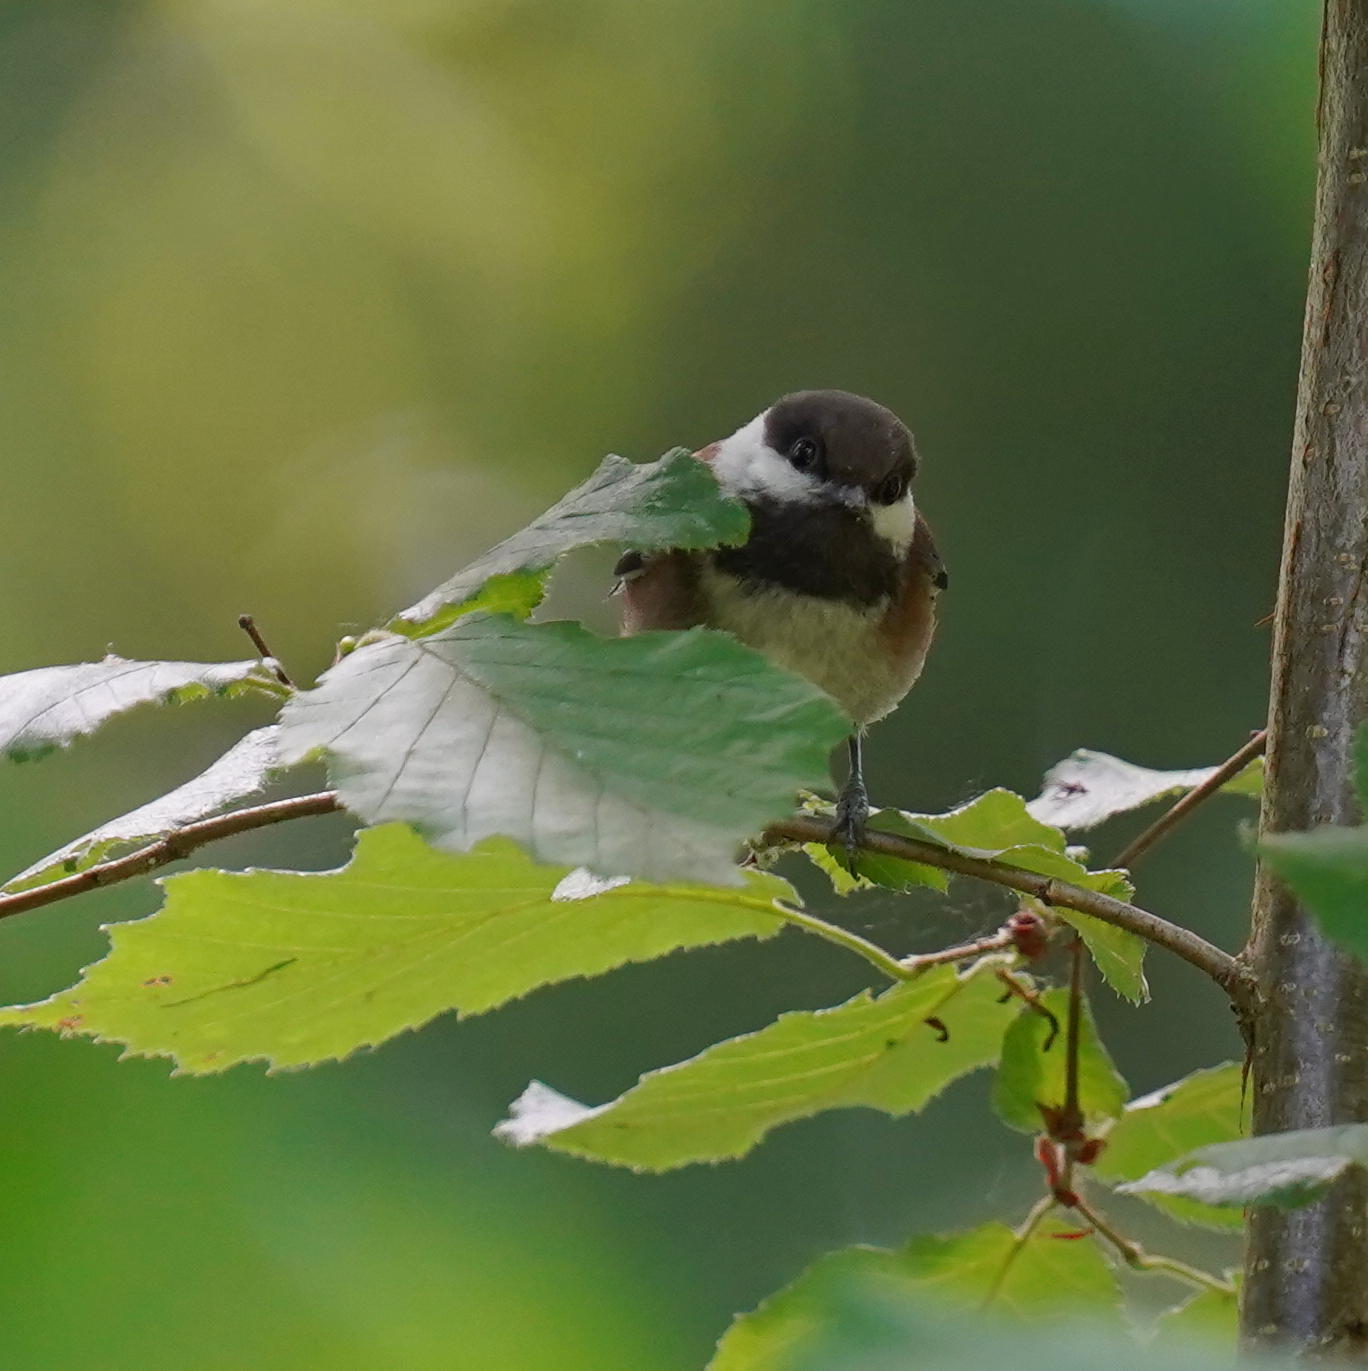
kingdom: Animalia
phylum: Chordata
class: Aves
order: Passeriformes
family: Paridae
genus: Poecile
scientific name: Poecile rufescens
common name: Chestnut-backed chickadee
